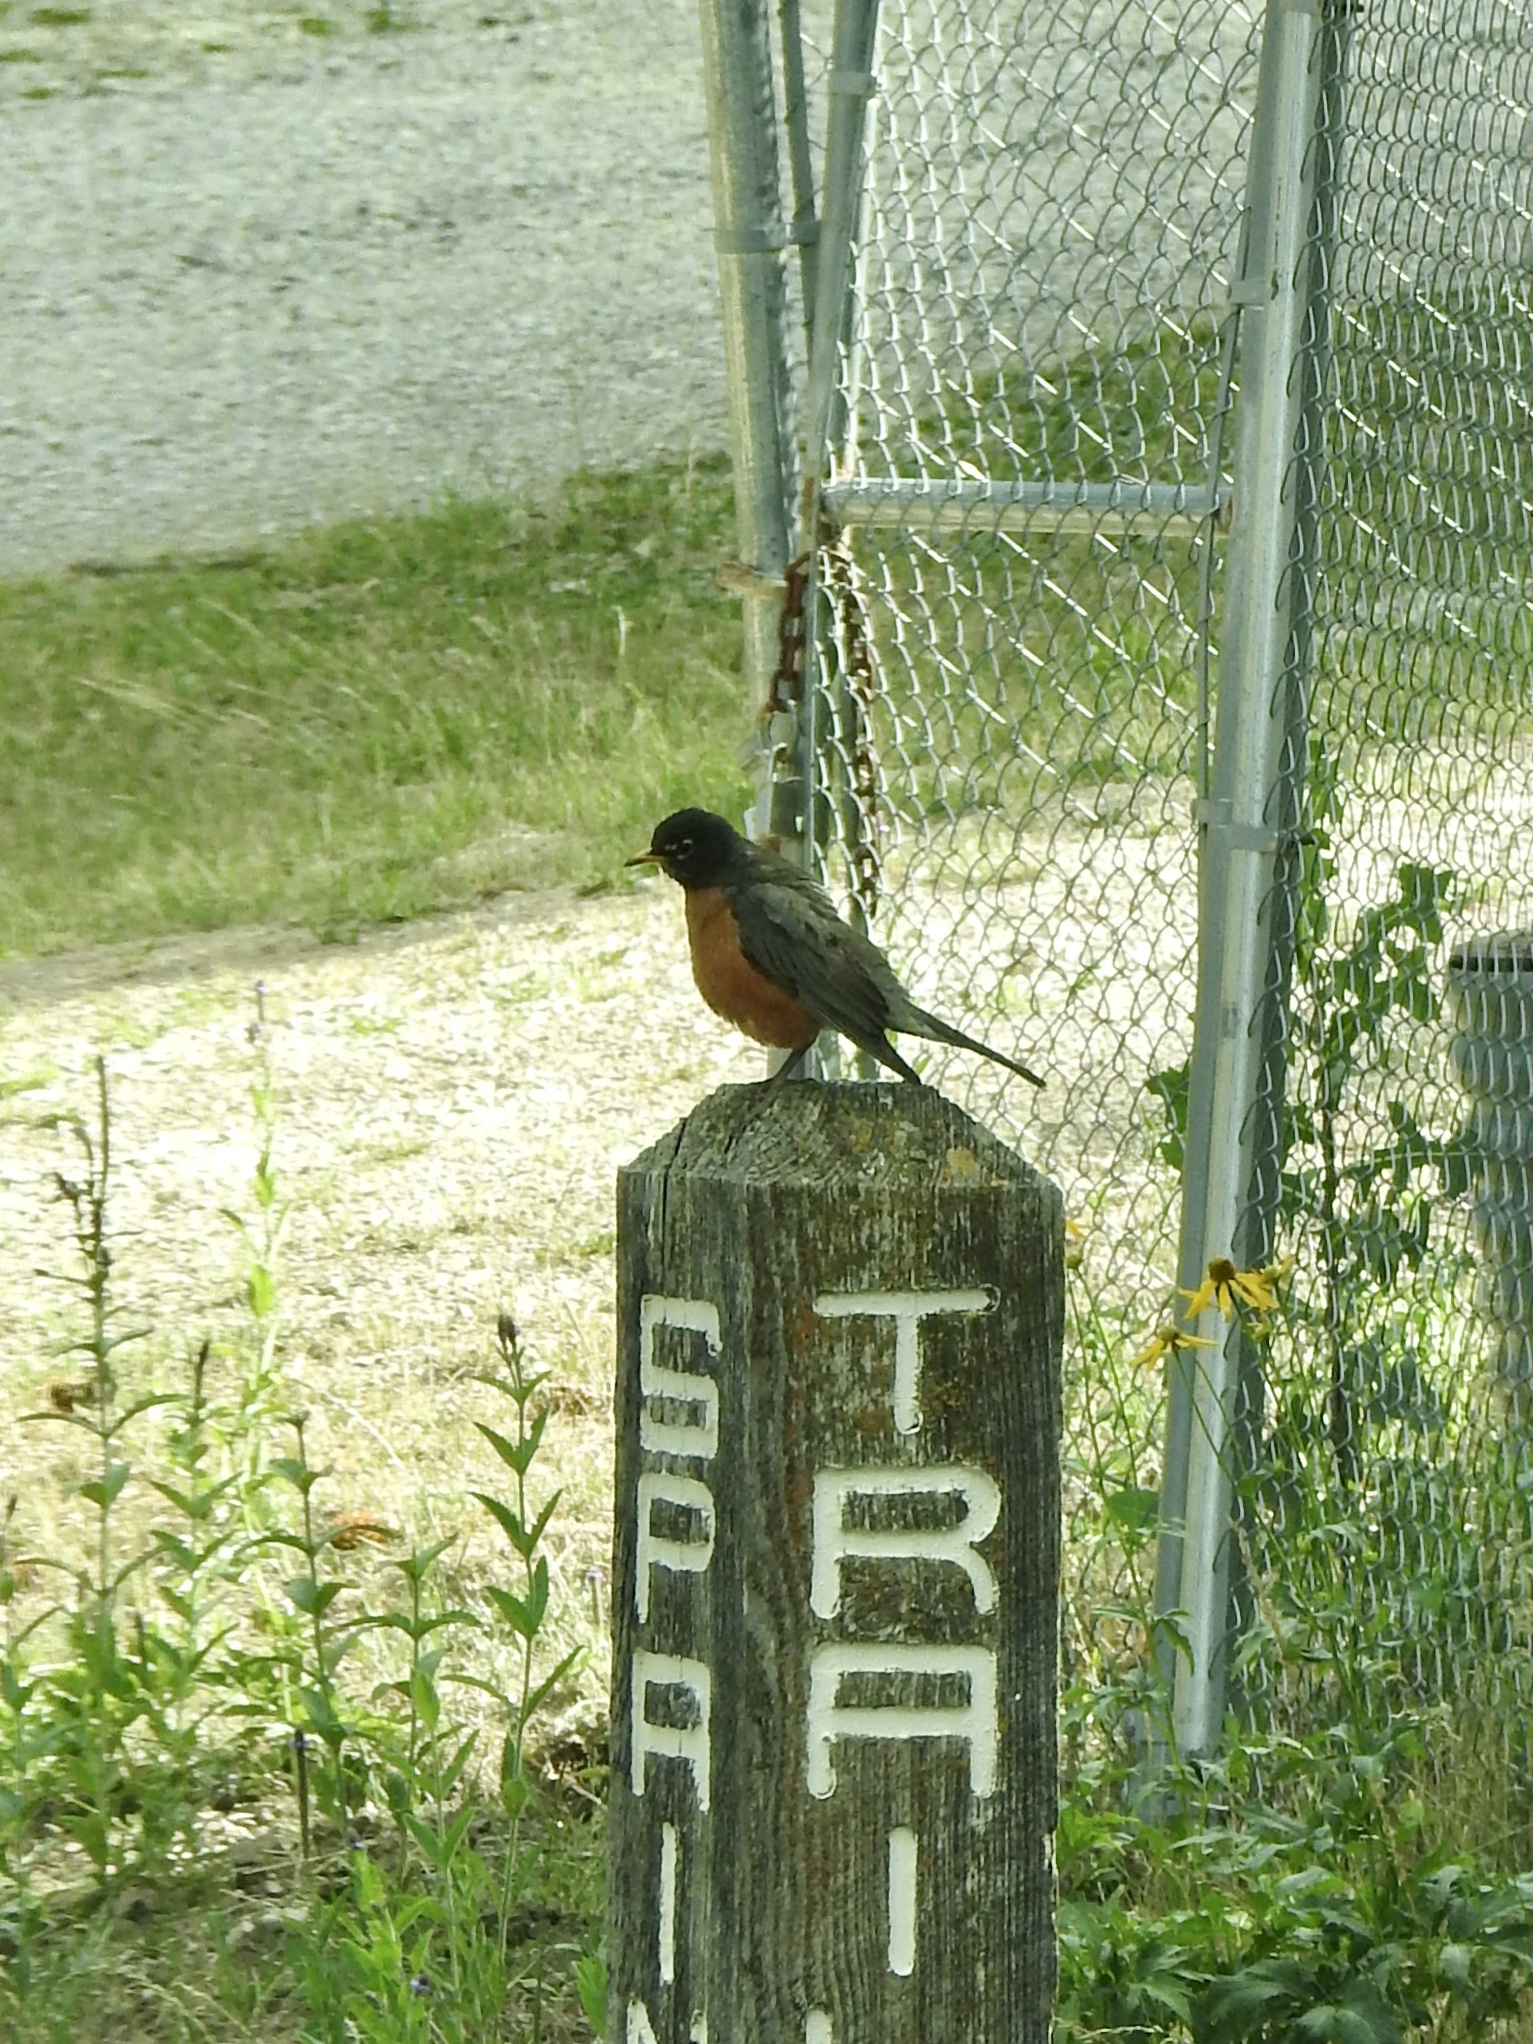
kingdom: Animalia
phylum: Chordata
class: Aves
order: Passeriformes
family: Turdidae
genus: Turdus
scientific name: Turdus migratorius
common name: American robin
